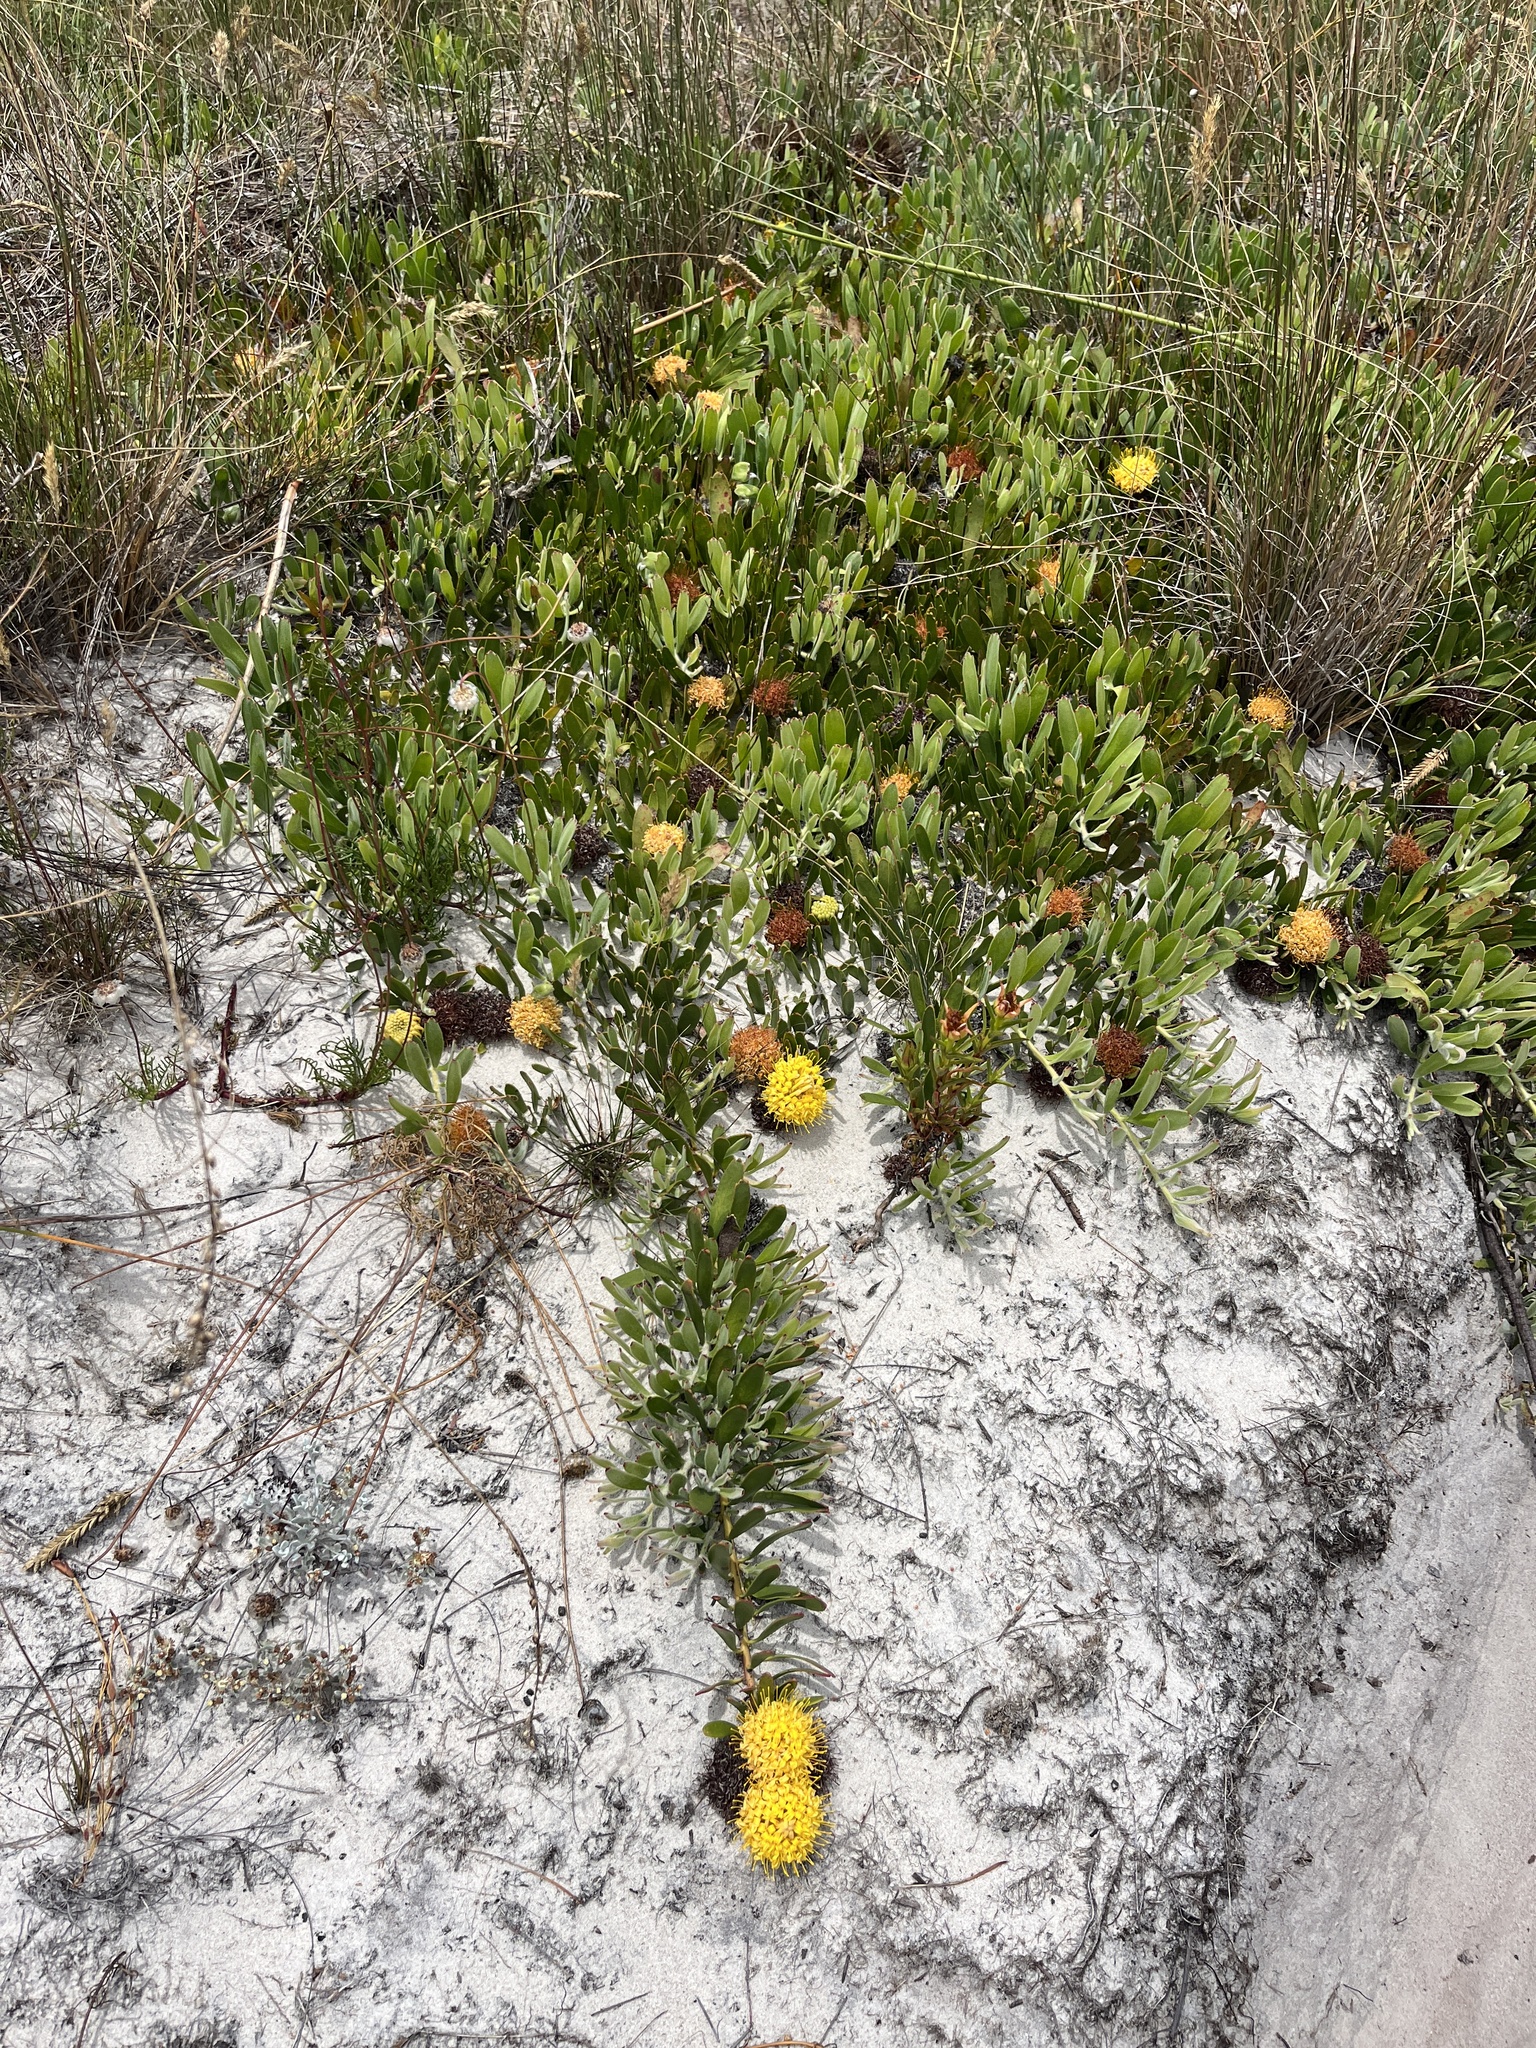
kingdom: Plantae
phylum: Tracheophyta
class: Magnoliopsida
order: Proteales
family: Proteaceae
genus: Leucospermum
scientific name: Leucospermum hypophyllocarpodendron
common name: Snakestem pincushion
